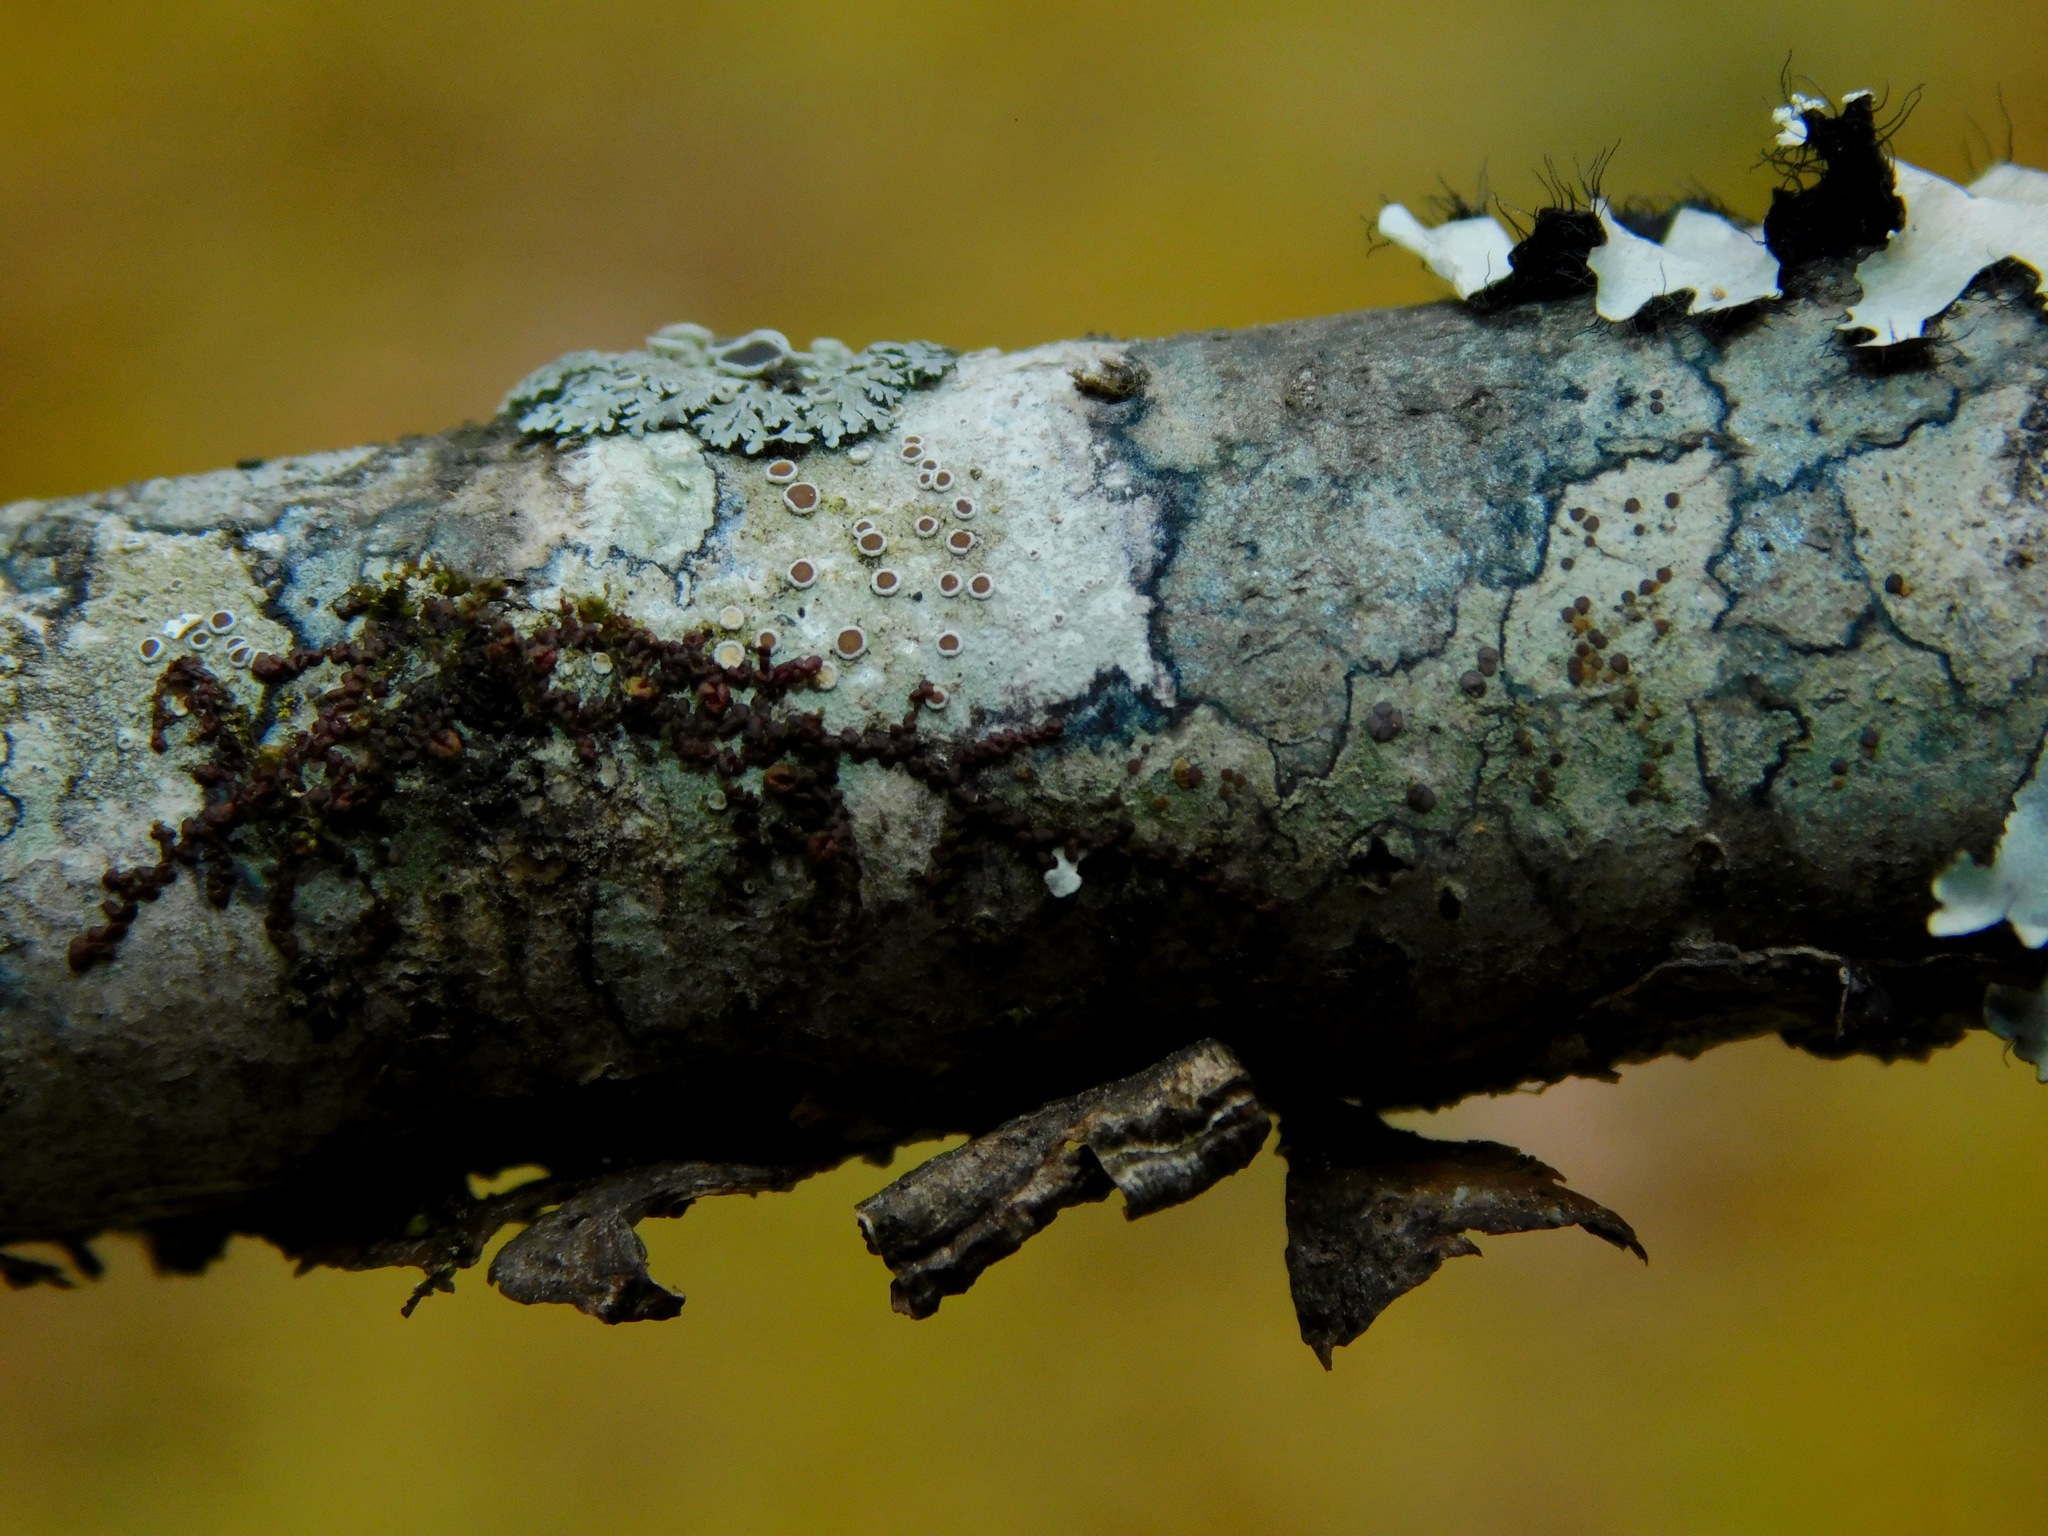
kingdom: Fungi
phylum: Ascomycota
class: Lecanoromycetes
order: Lecanorales
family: Lecanoraceae
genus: Lecanora
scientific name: Lecanora imshaugi
